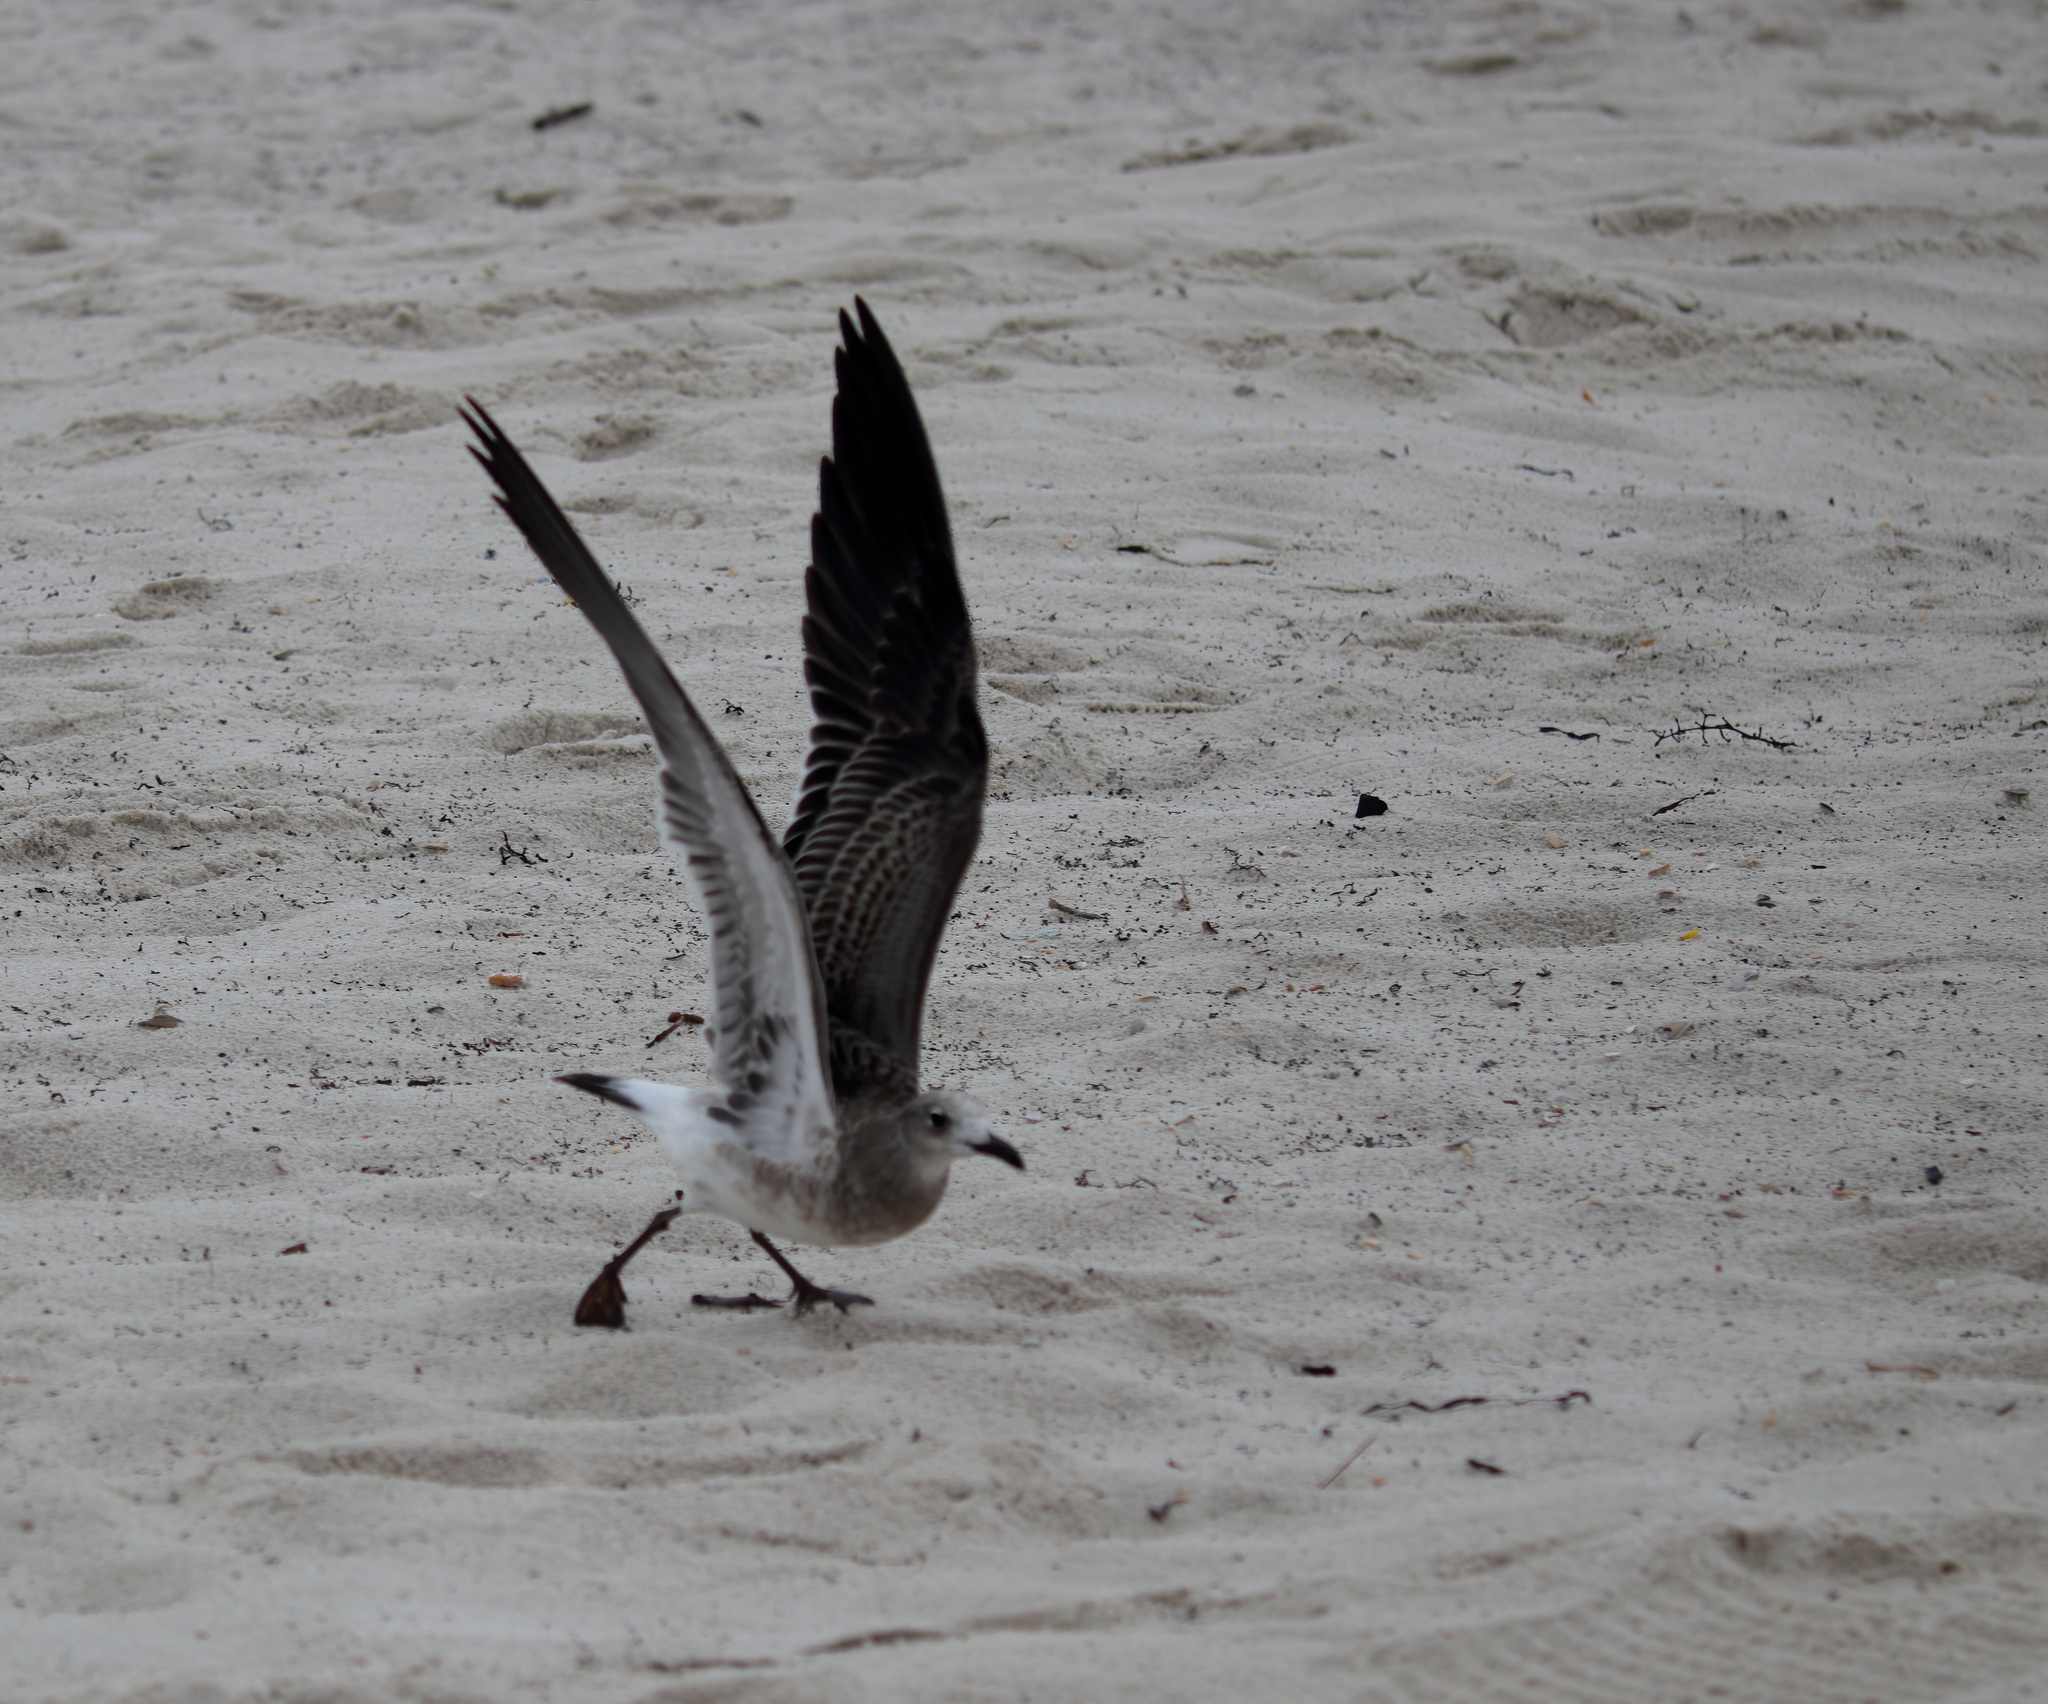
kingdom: Animalia
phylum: Chordata
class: Aves
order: Charadriiformes
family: Laridae
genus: Leucophaeus
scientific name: Leucophaeus atricilla
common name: Laughing gull
